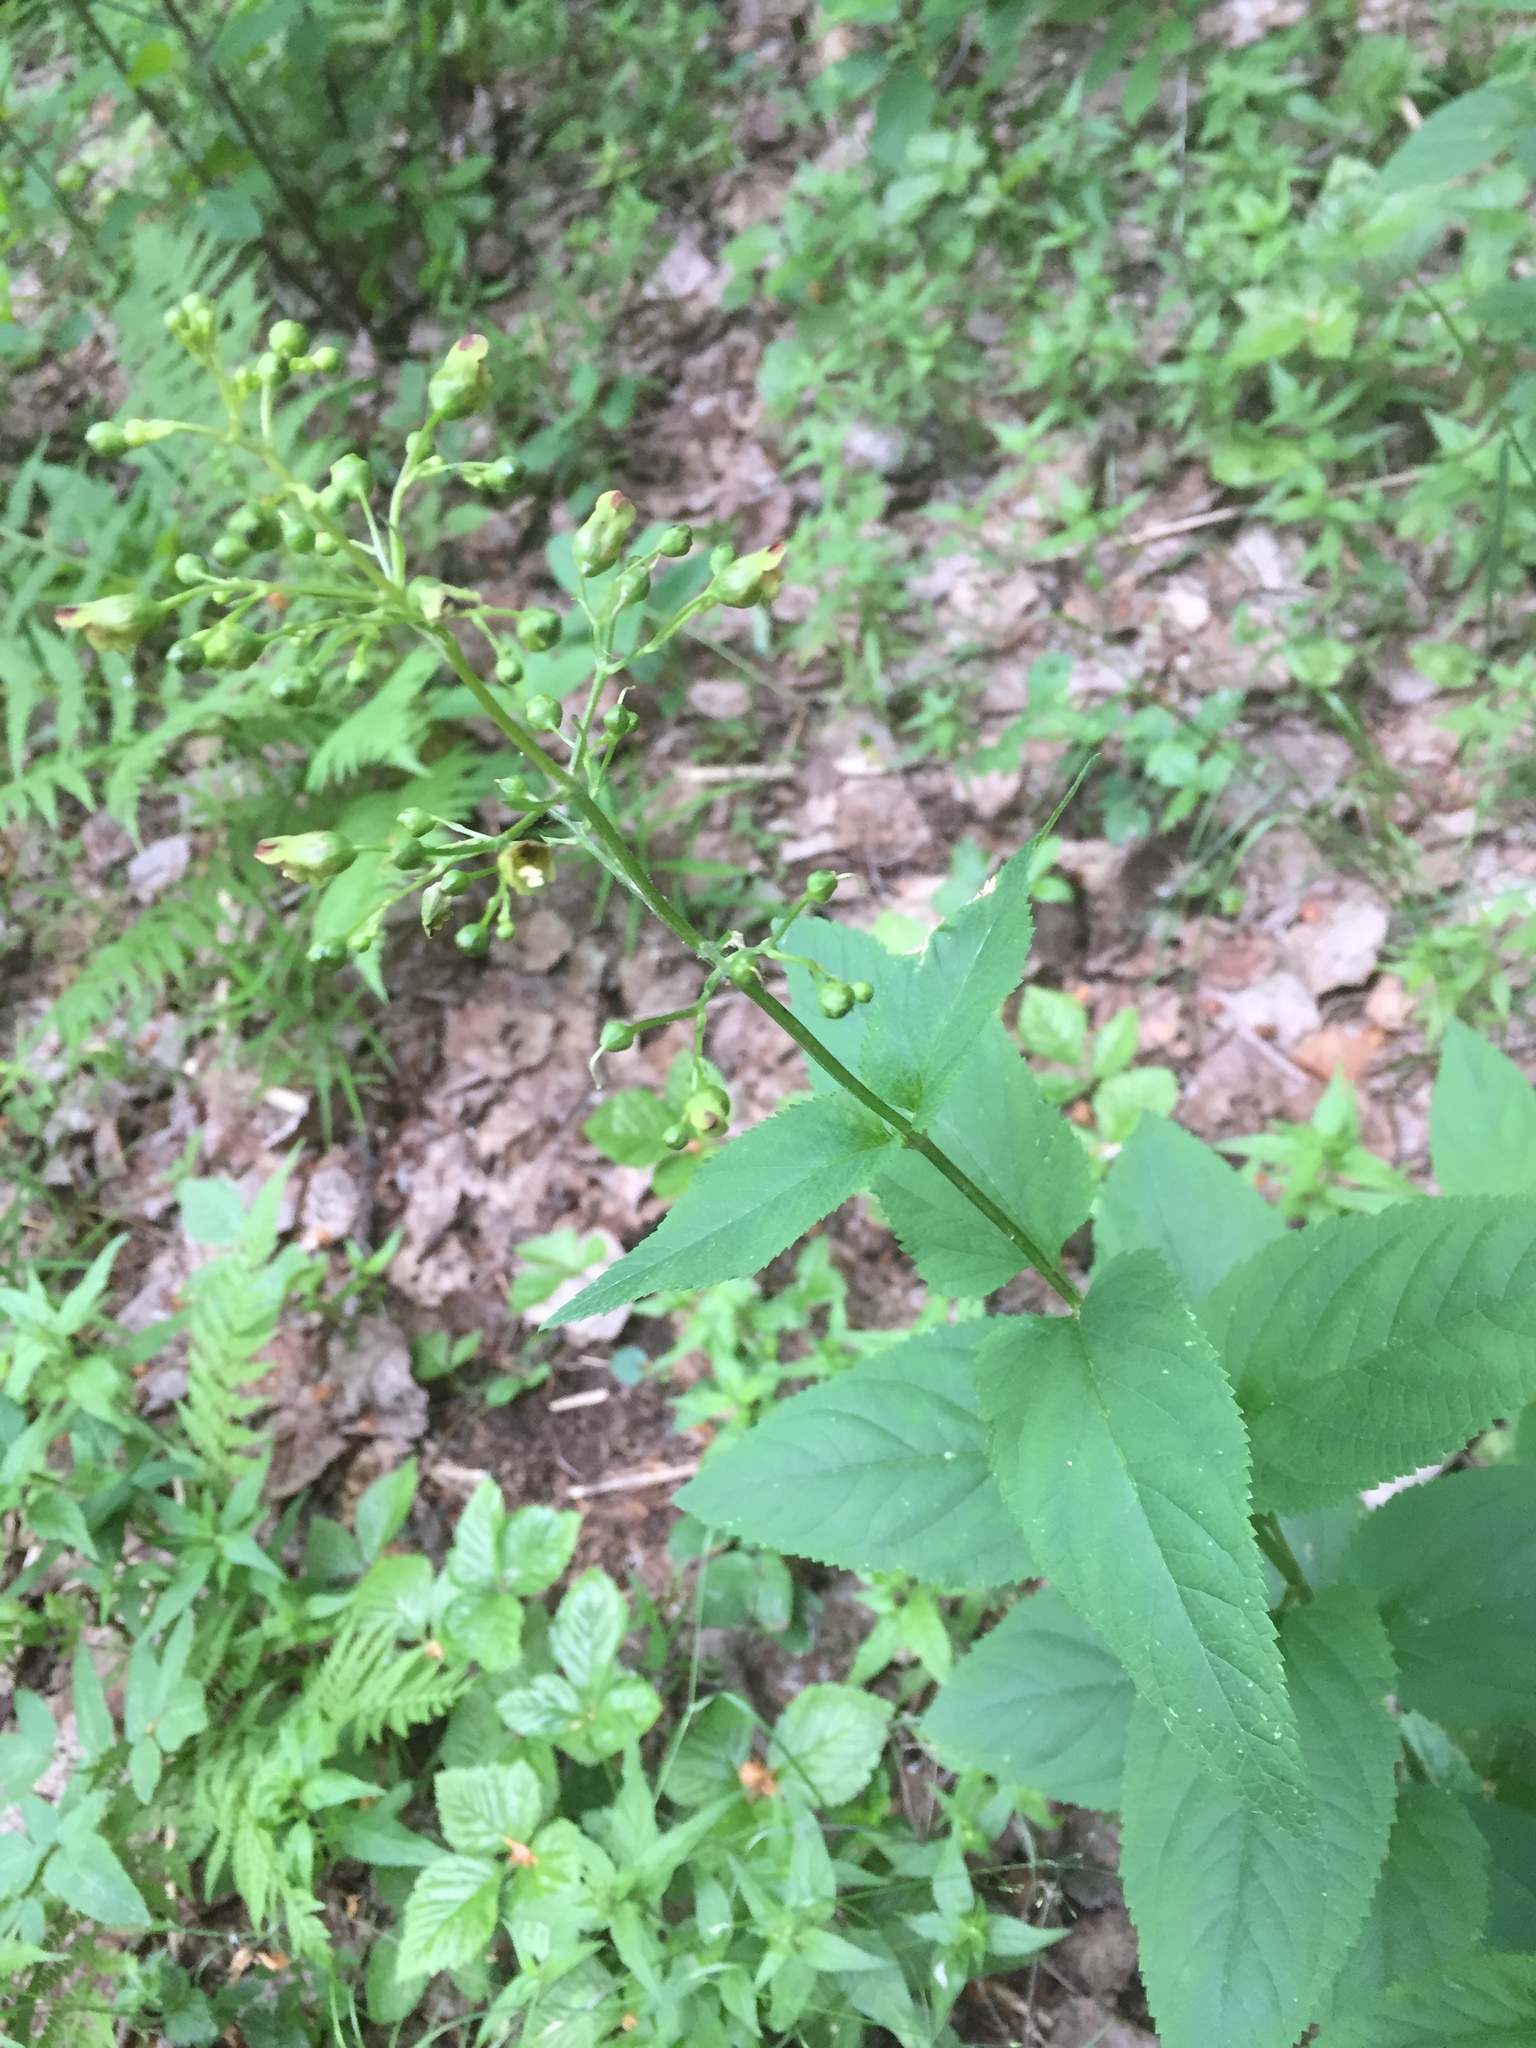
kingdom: Plantae
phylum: Tracheophyta
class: Magnoliopsida
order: Lamiales
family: Scrophulariaceae
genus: Scrophularia
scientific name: Scrophularia nodosa
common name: Common figwort
